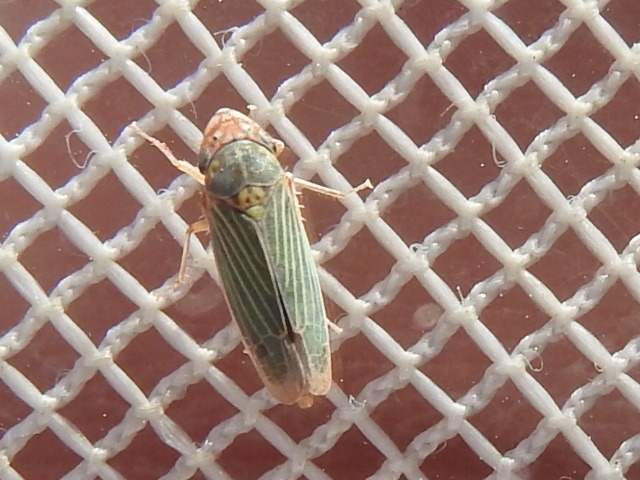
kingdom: Animalia
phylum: Arthropoda
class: Insecta
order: Hemiptera
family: Cicadellidae
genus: Xyphon
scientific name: Xyphon reticulatum
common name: Planthopper
